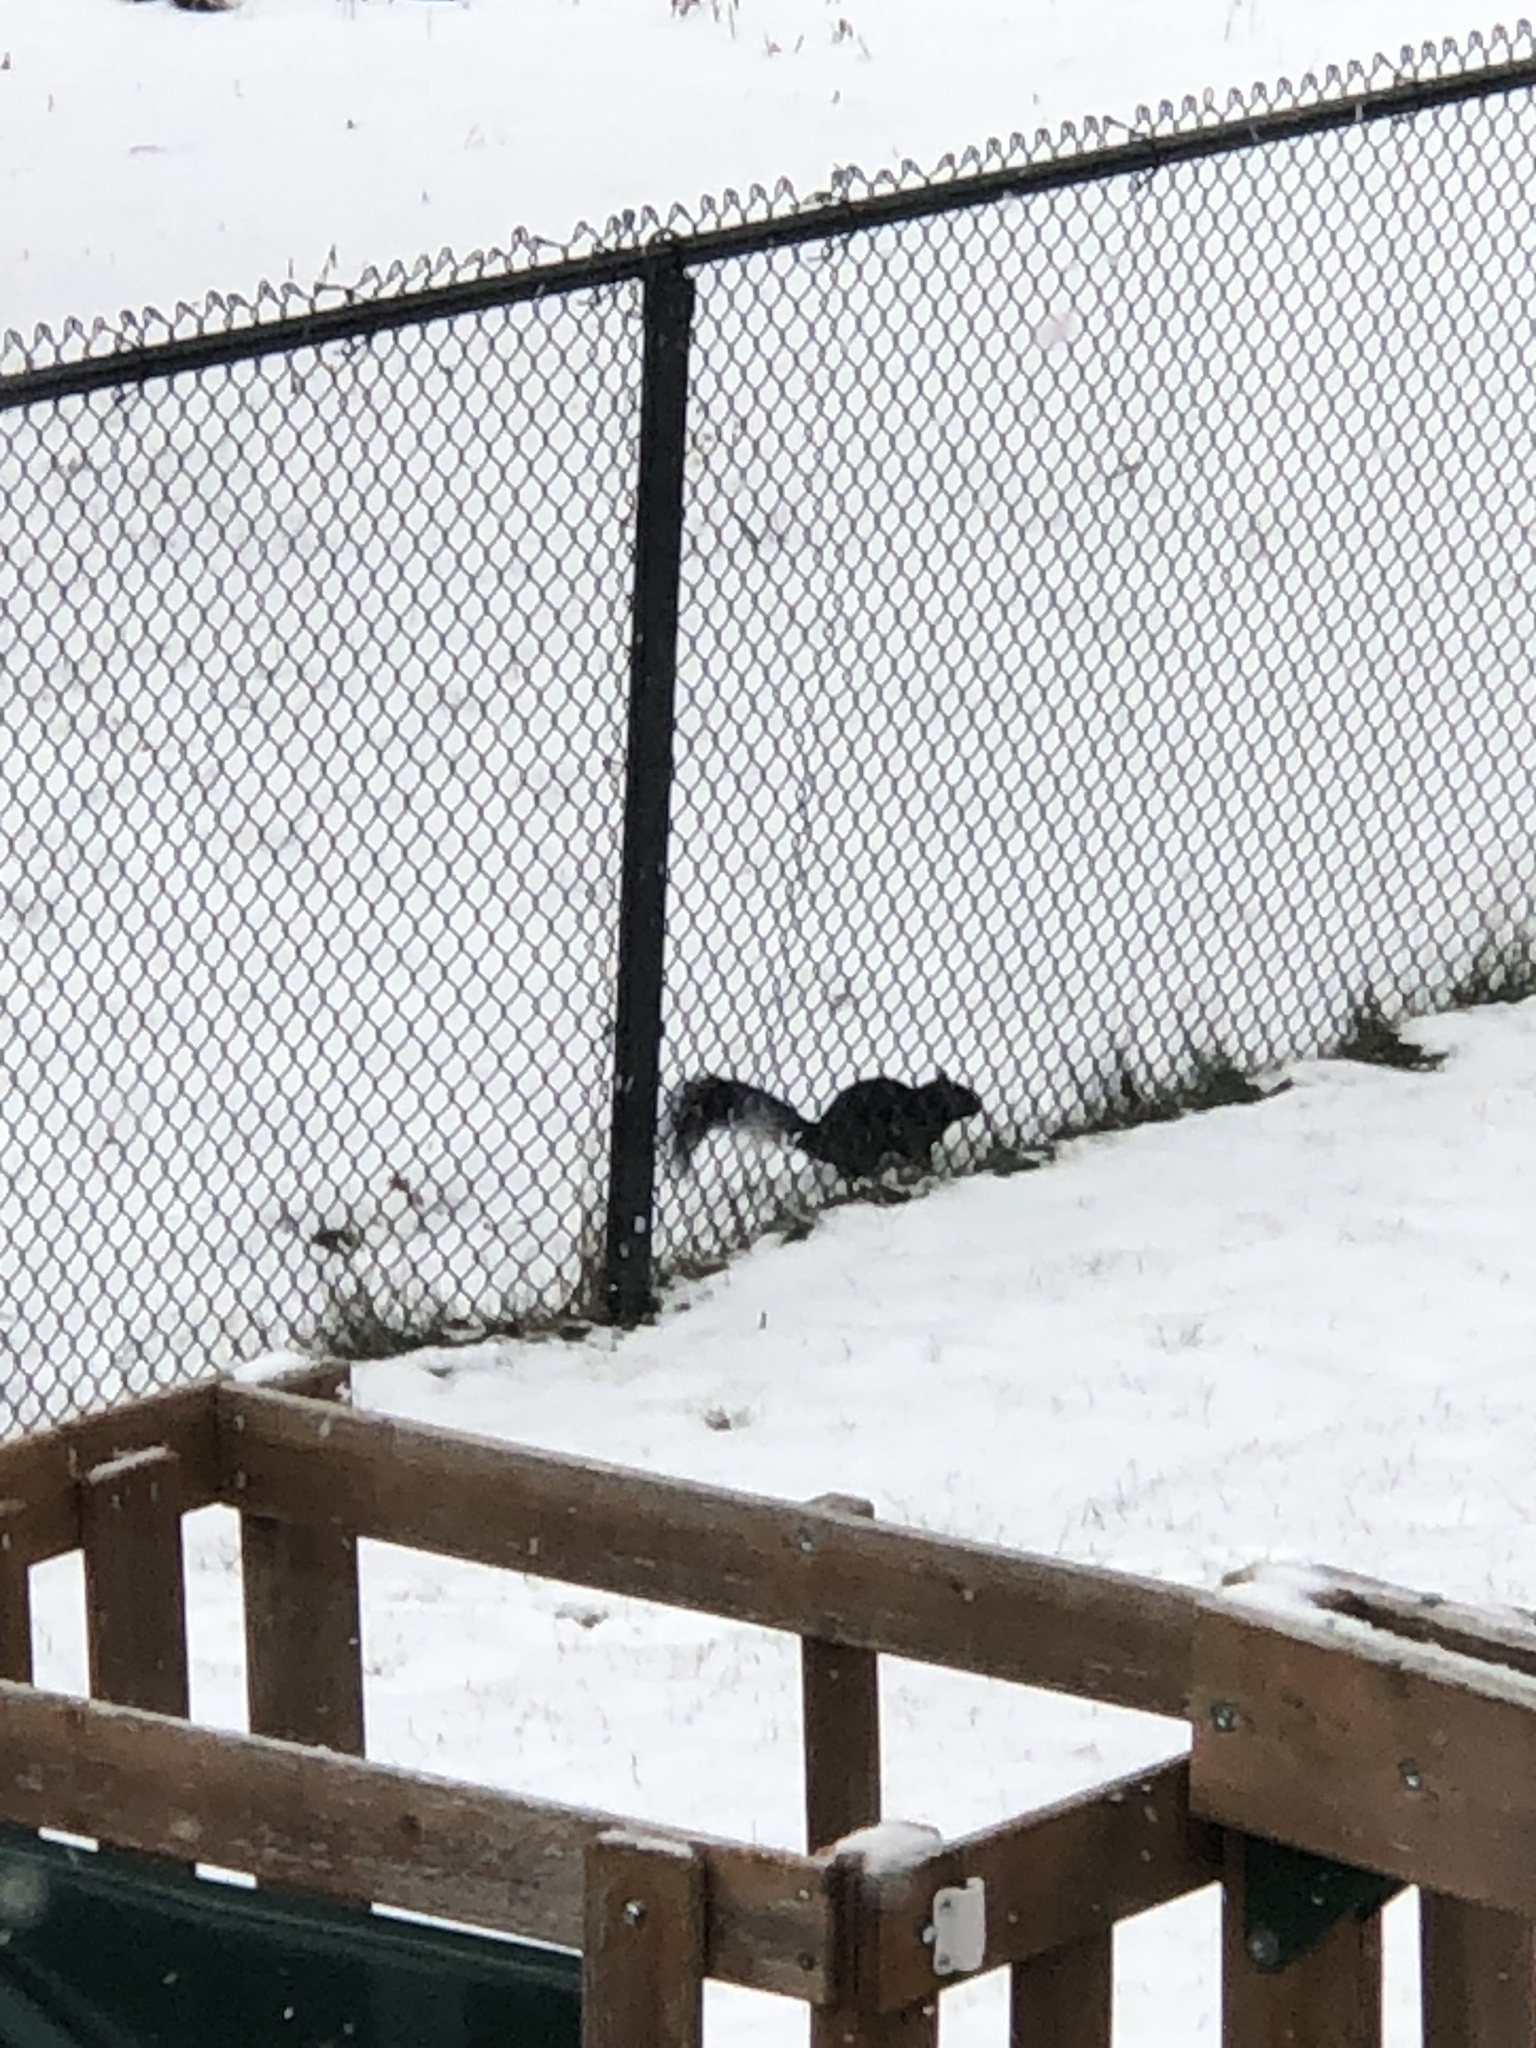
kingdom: Animalia
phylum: Chordata
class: Mammalia
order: Rodentia
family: Sciuridae
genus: Sciurus
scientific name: Sciurus carolinensis
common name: Eastern gray squirrel
